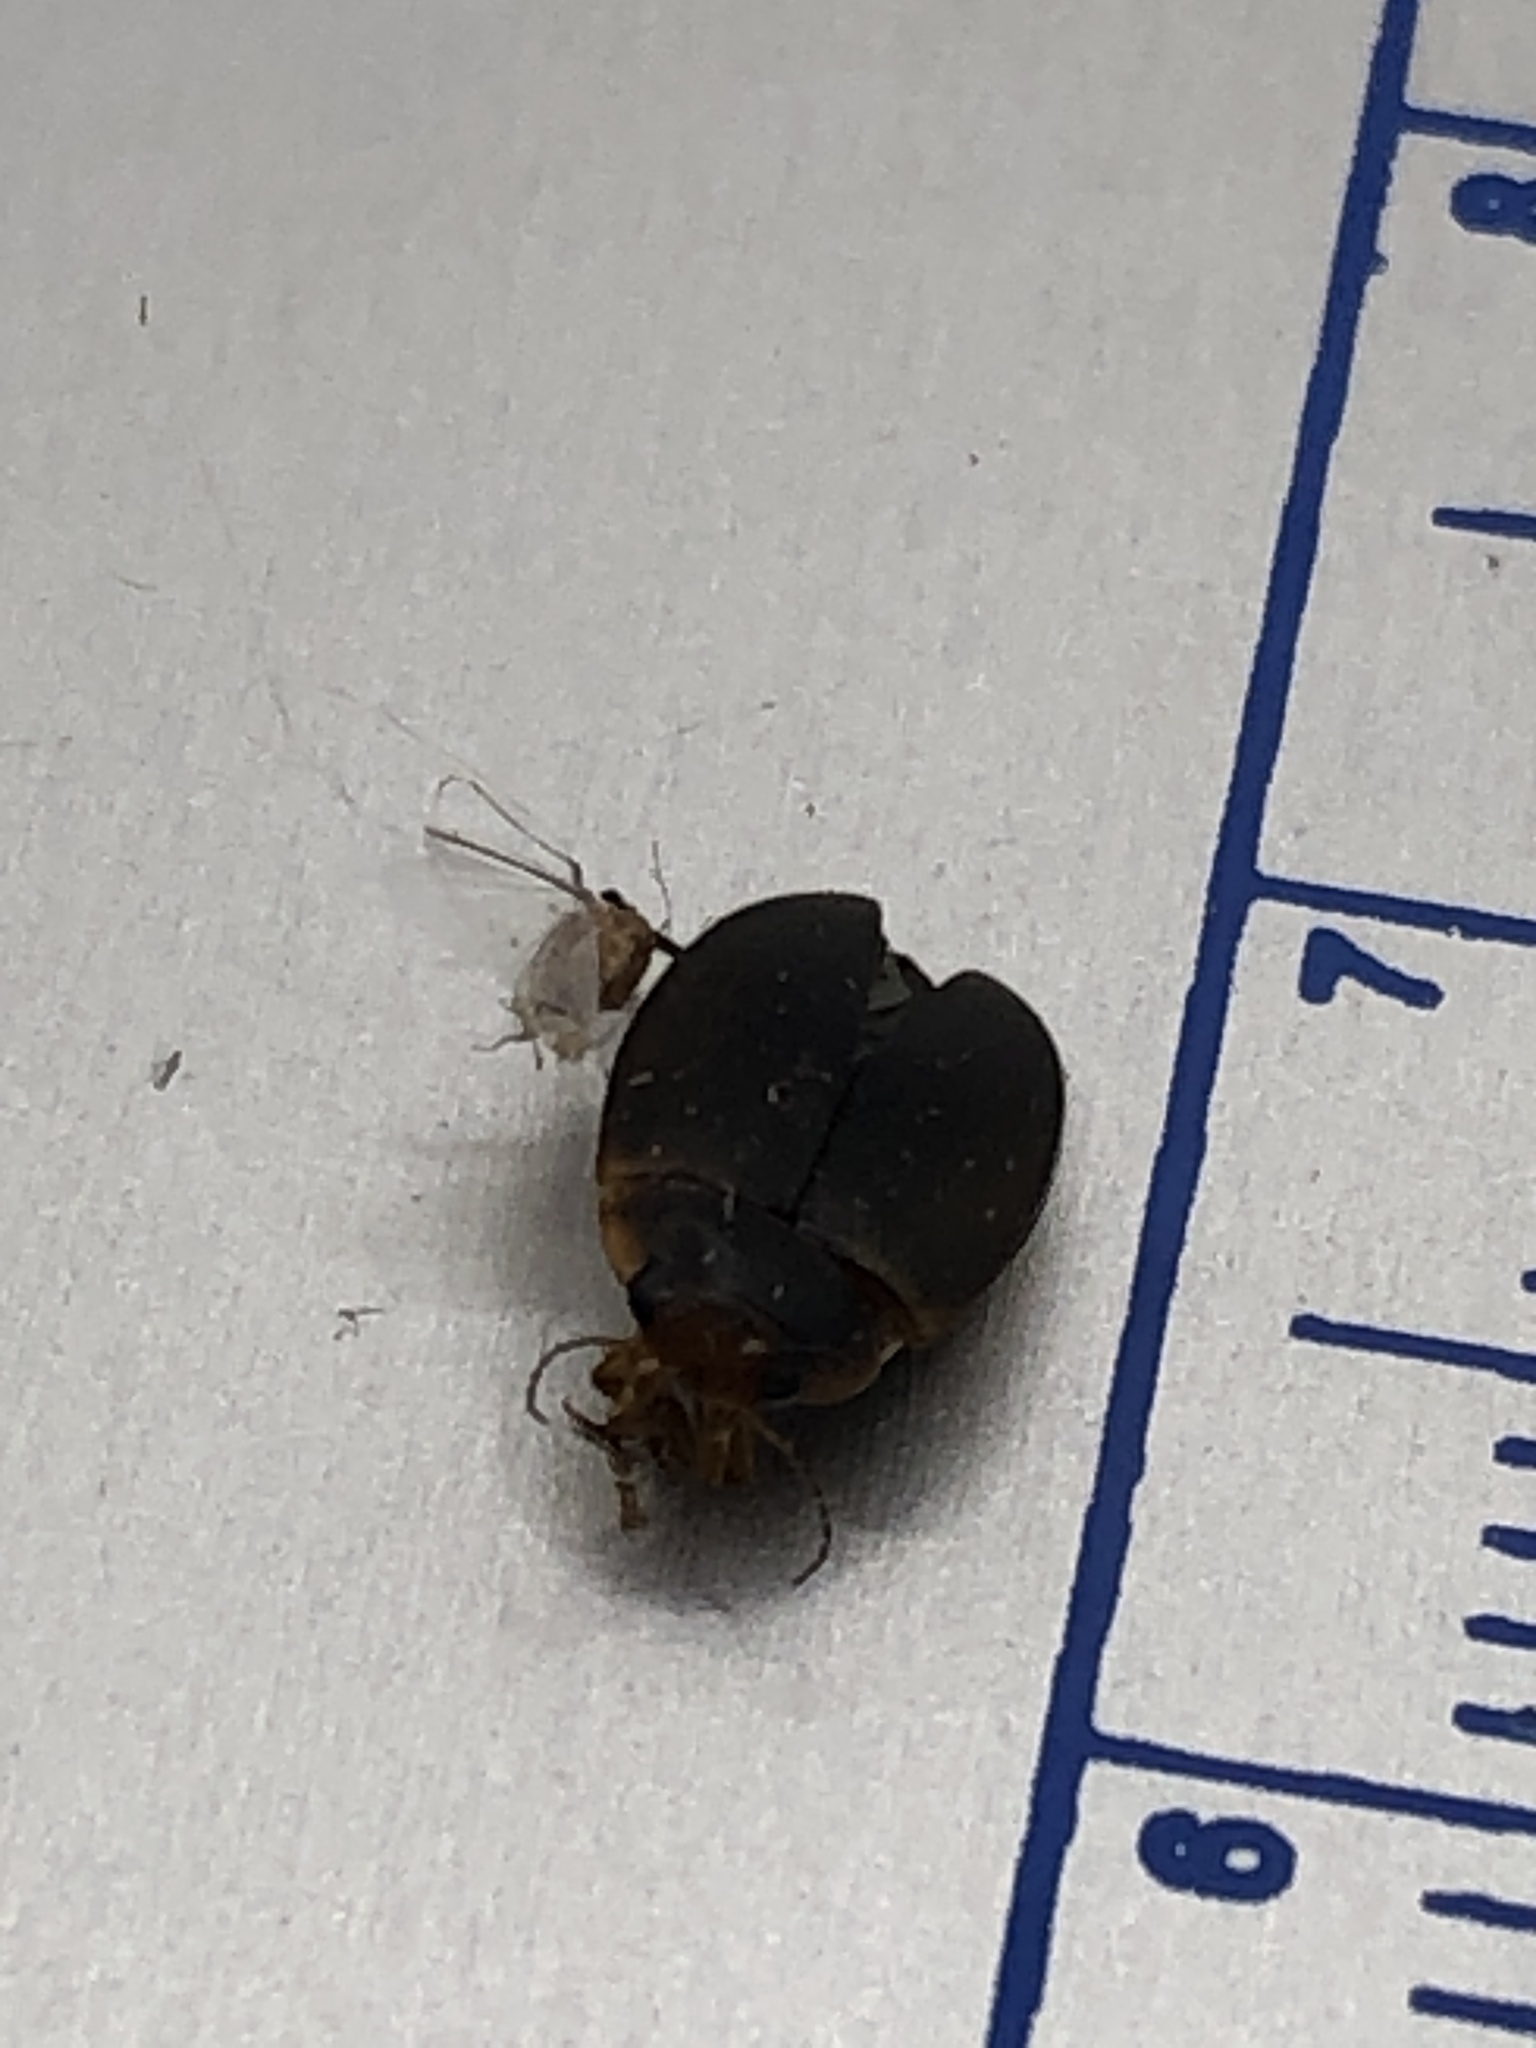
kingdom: Animalia
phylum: Arthropoda
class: Insecta
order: Coleoptera
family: Dytiscidae
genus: Agabetes
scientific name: Agabetes acuductus
